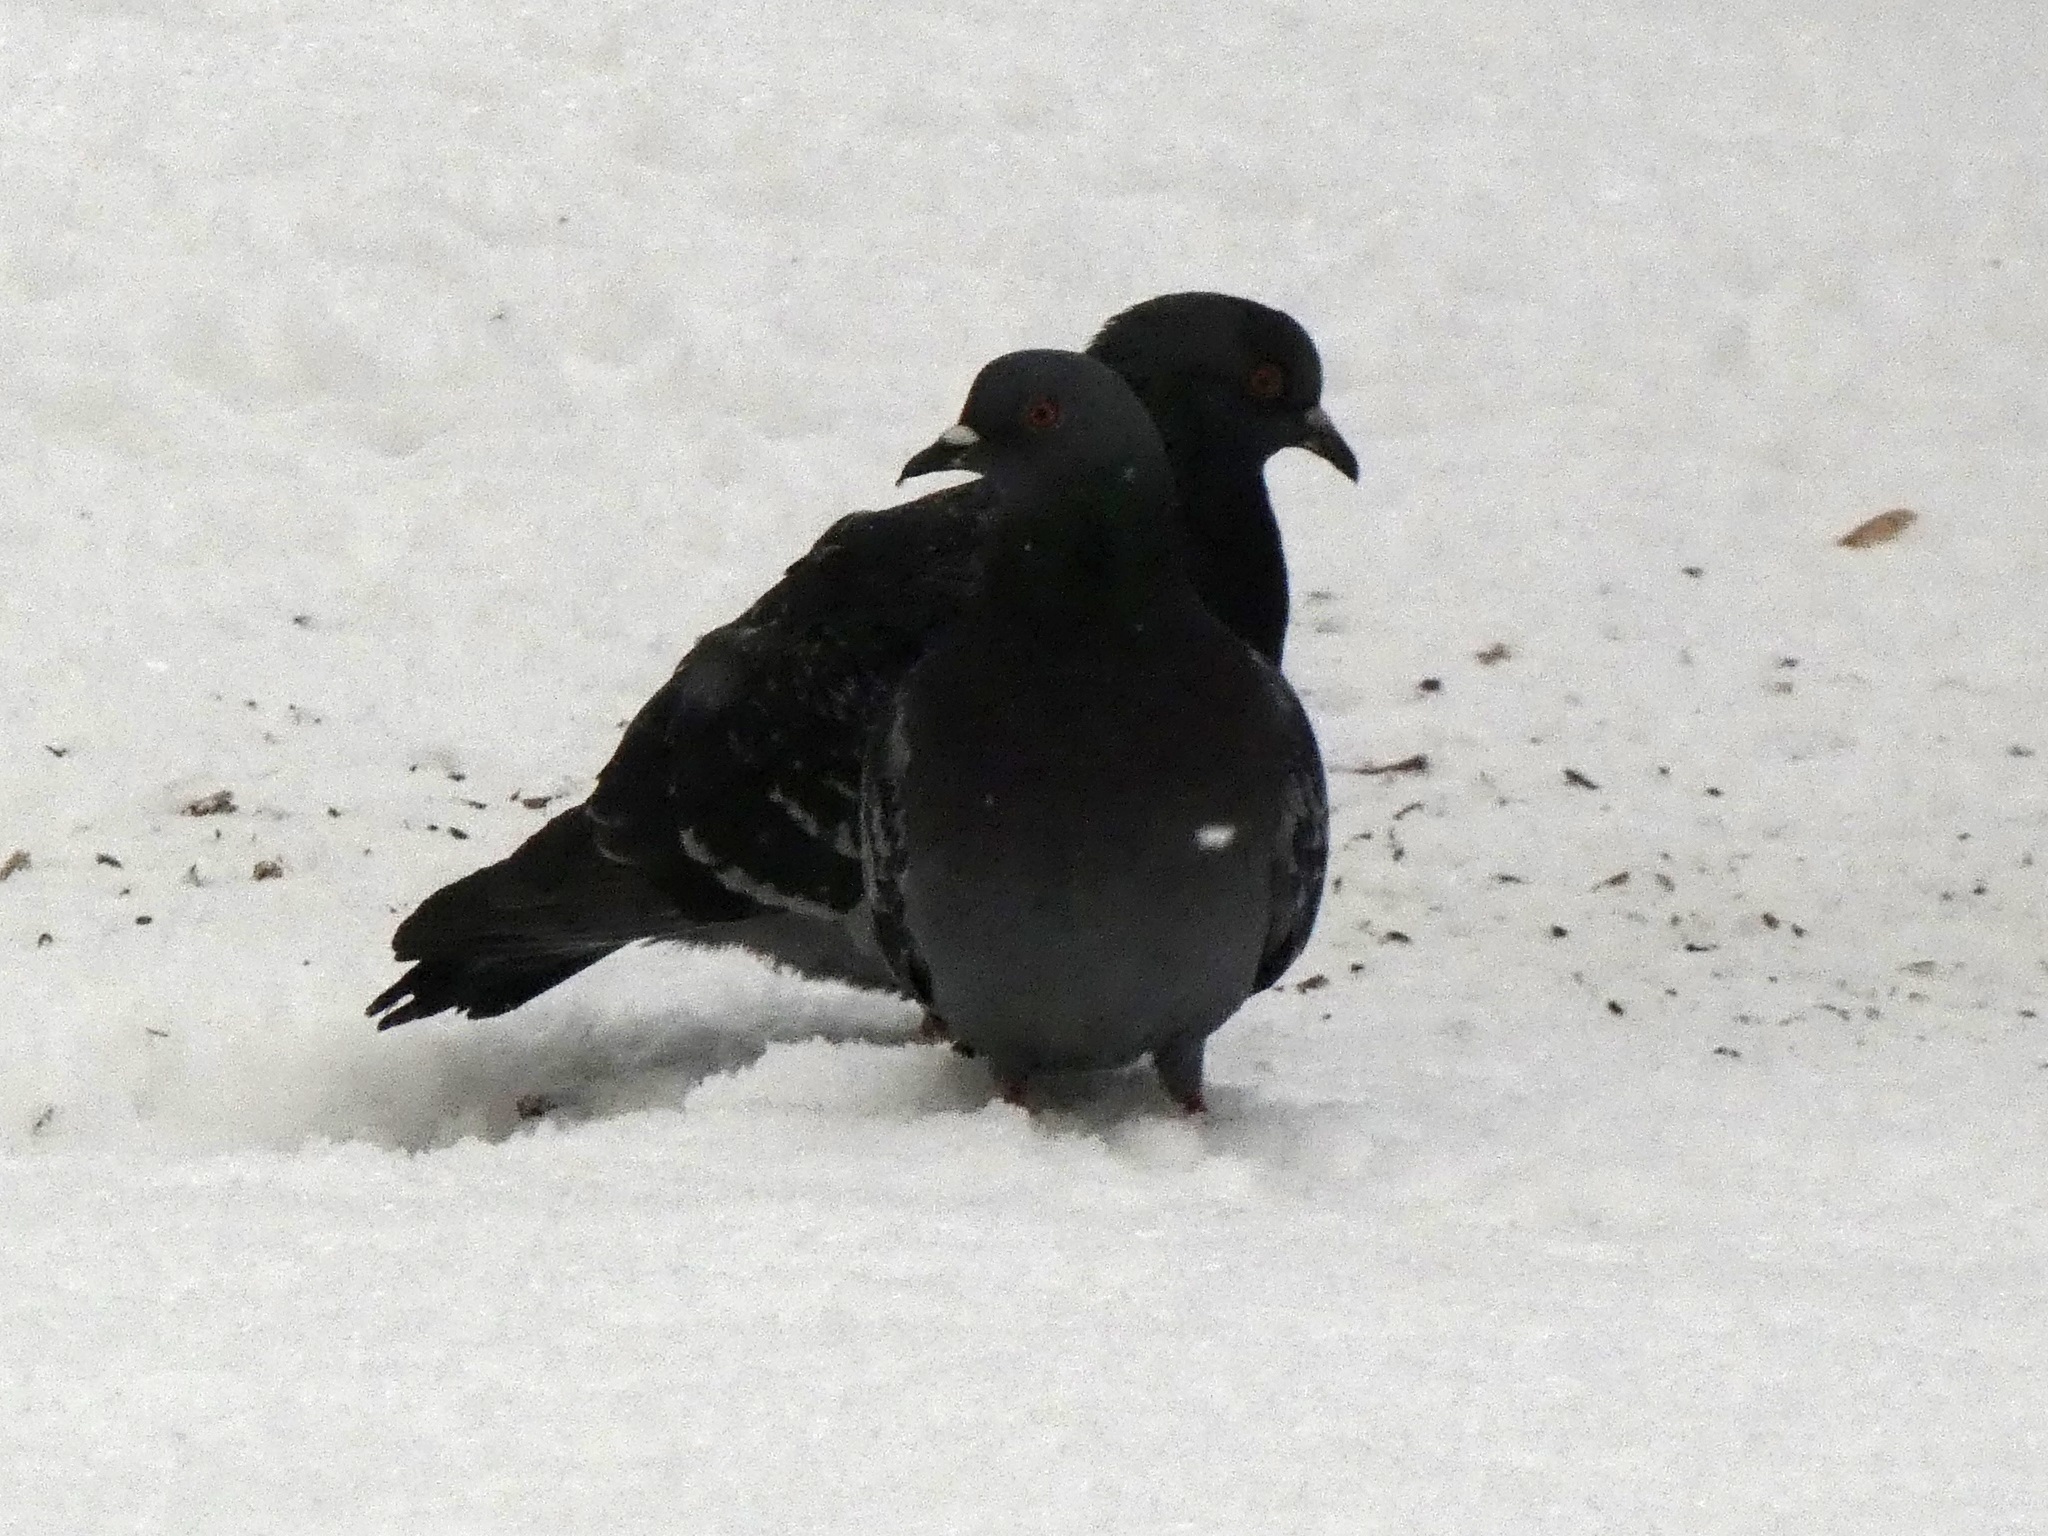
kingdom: Animalia
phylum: Chordata
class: Aves
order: Columbiformes
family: Columbidae
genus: Columba
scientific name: Columba livia
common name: Rock pigeon
